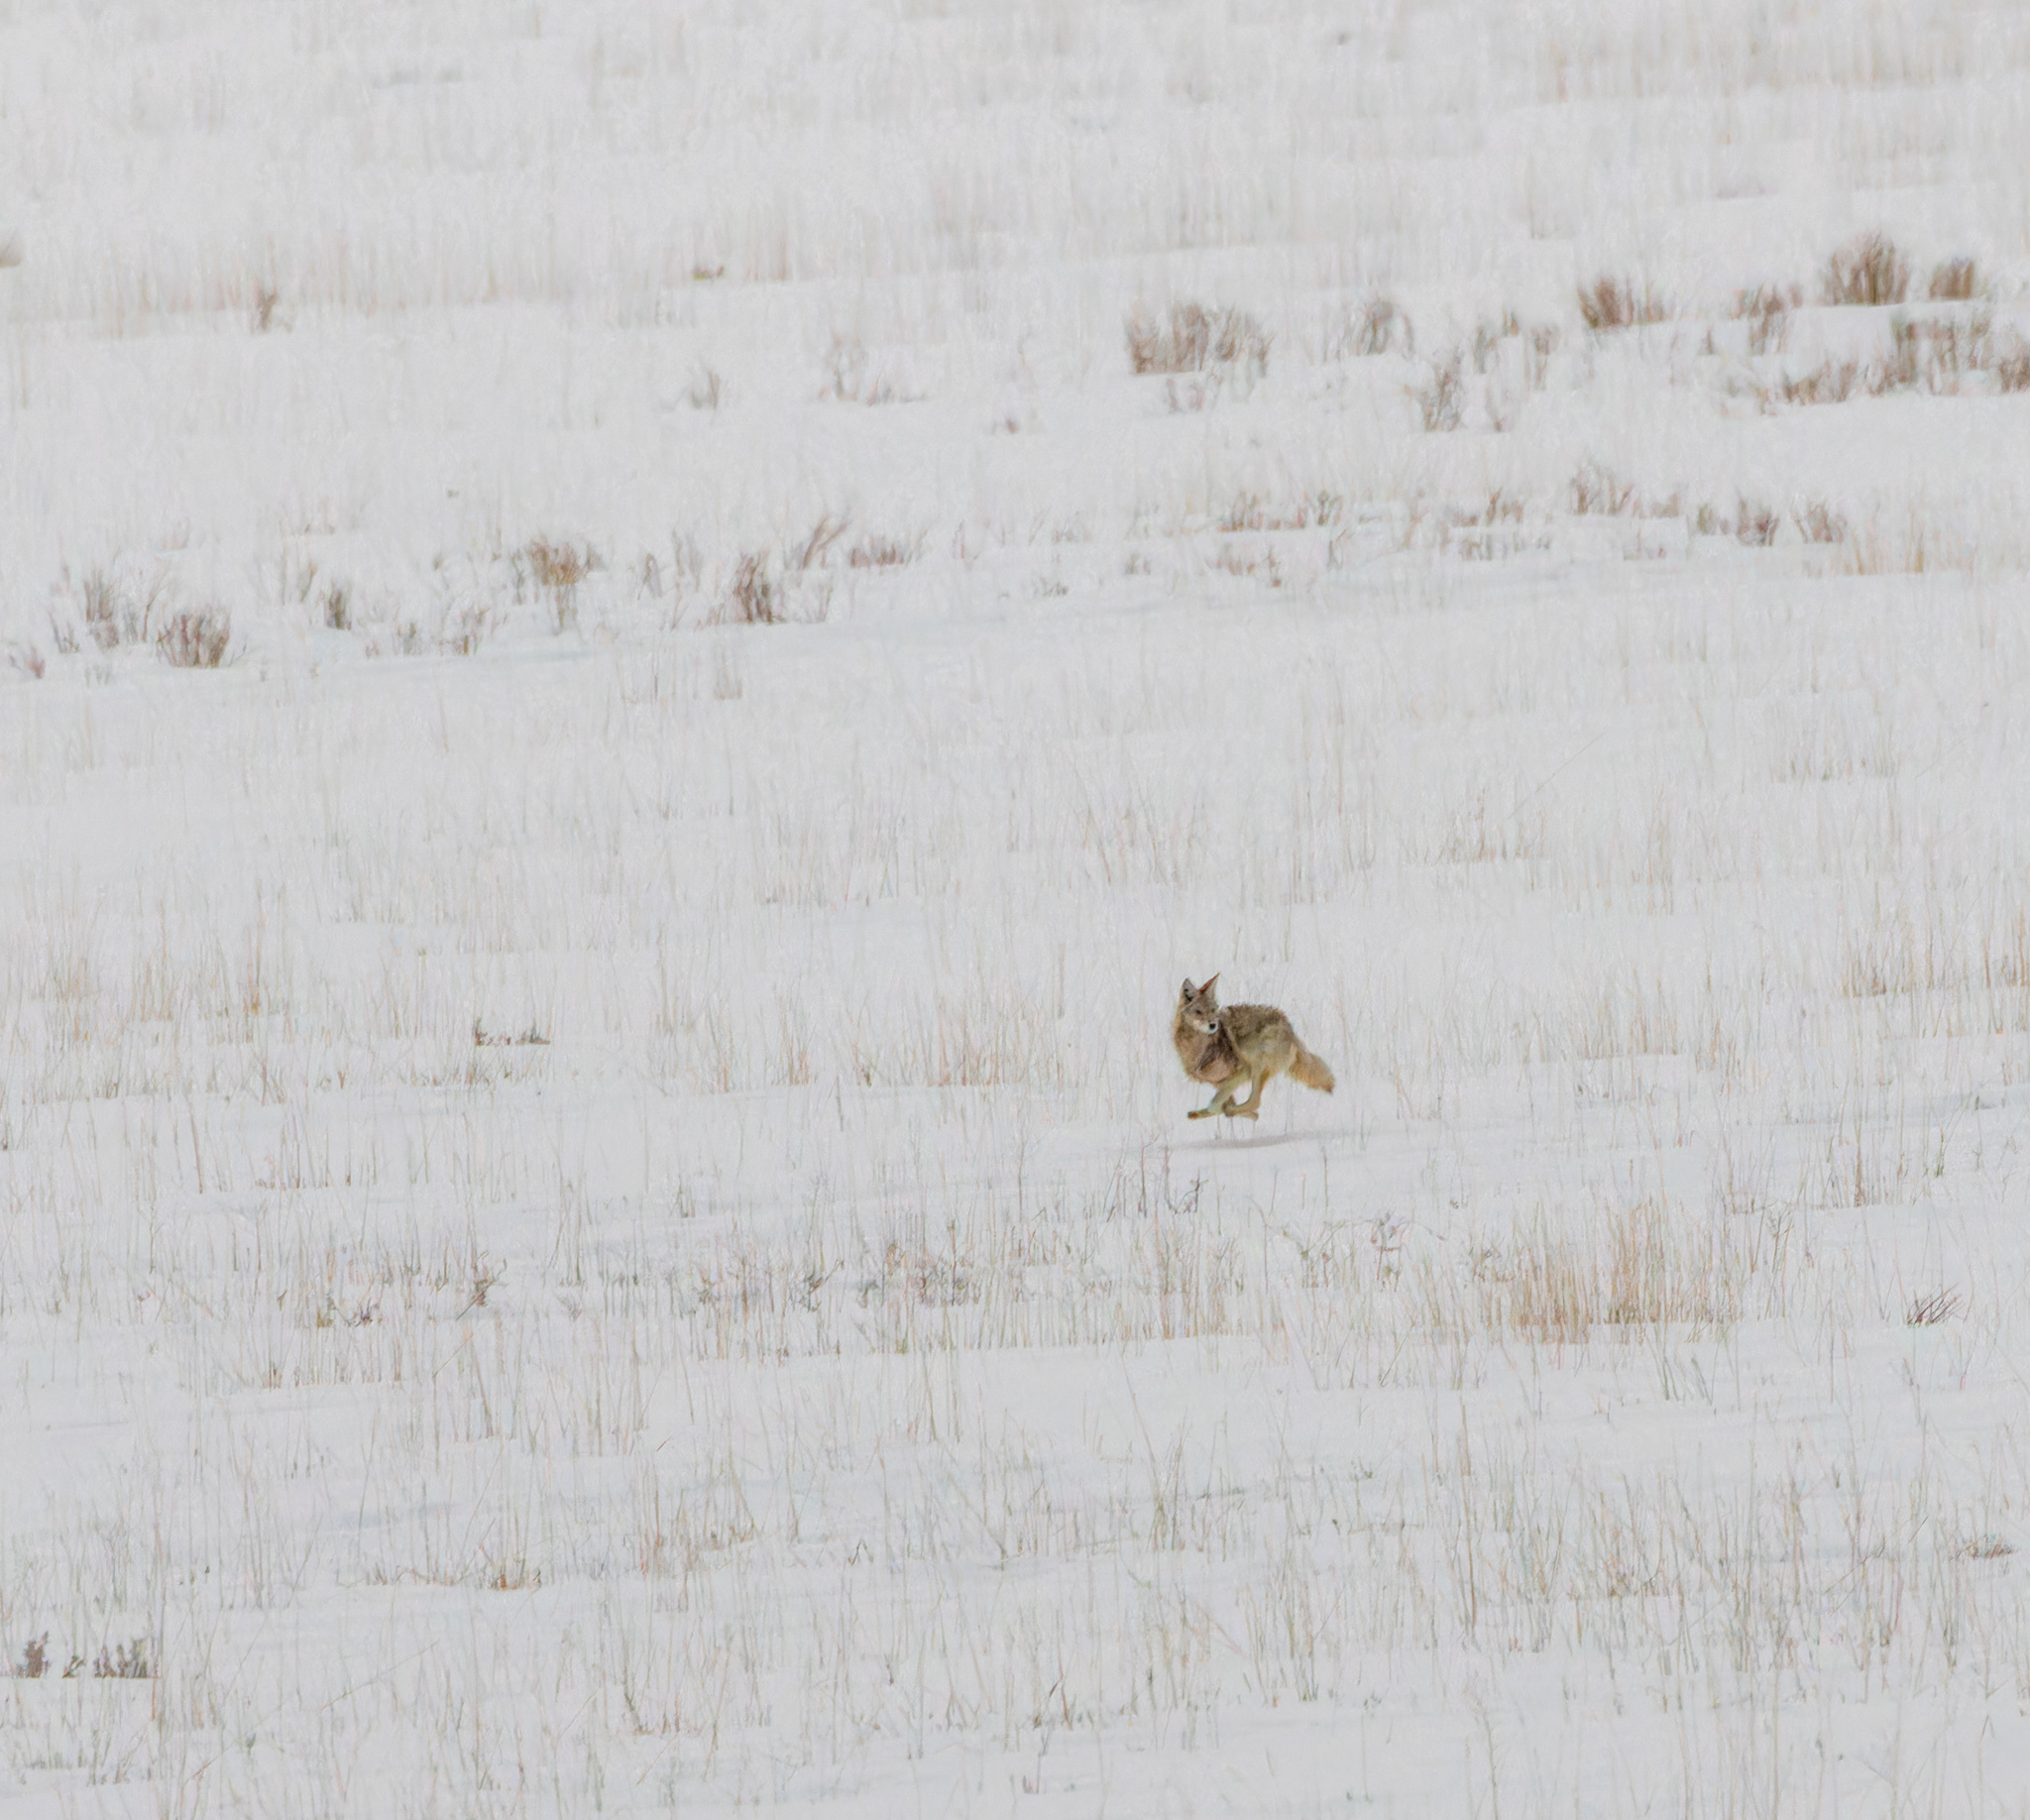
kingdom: Animalia
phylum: Chordata
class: Mammalia
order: Carnivora
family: Canidae
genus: Canis
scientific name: Canis latrans
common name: Coyote
